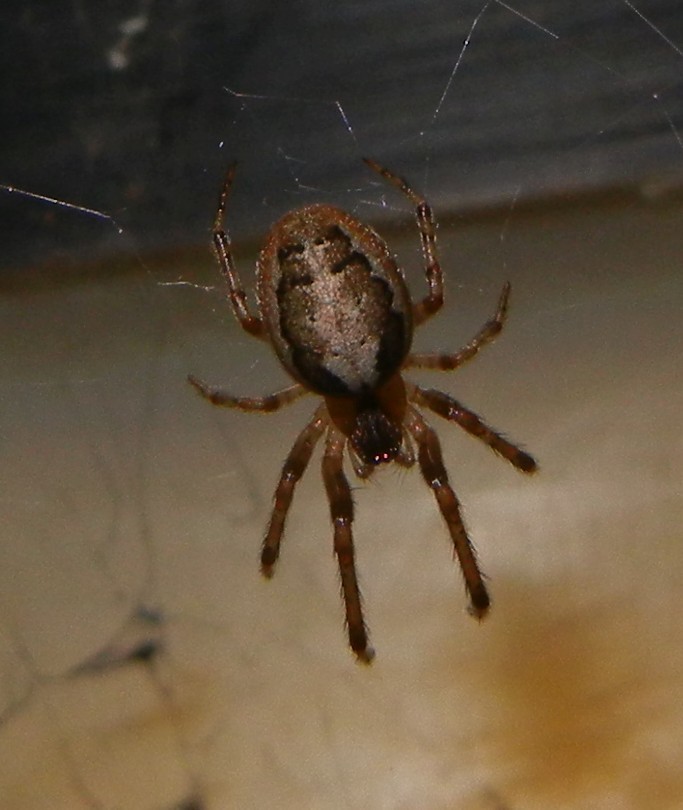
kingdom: Animalia
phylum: Arthropoda
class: Arachnida
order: Araneae
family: Araneidae
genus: Zygiella
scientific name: Zygiella x-notata
